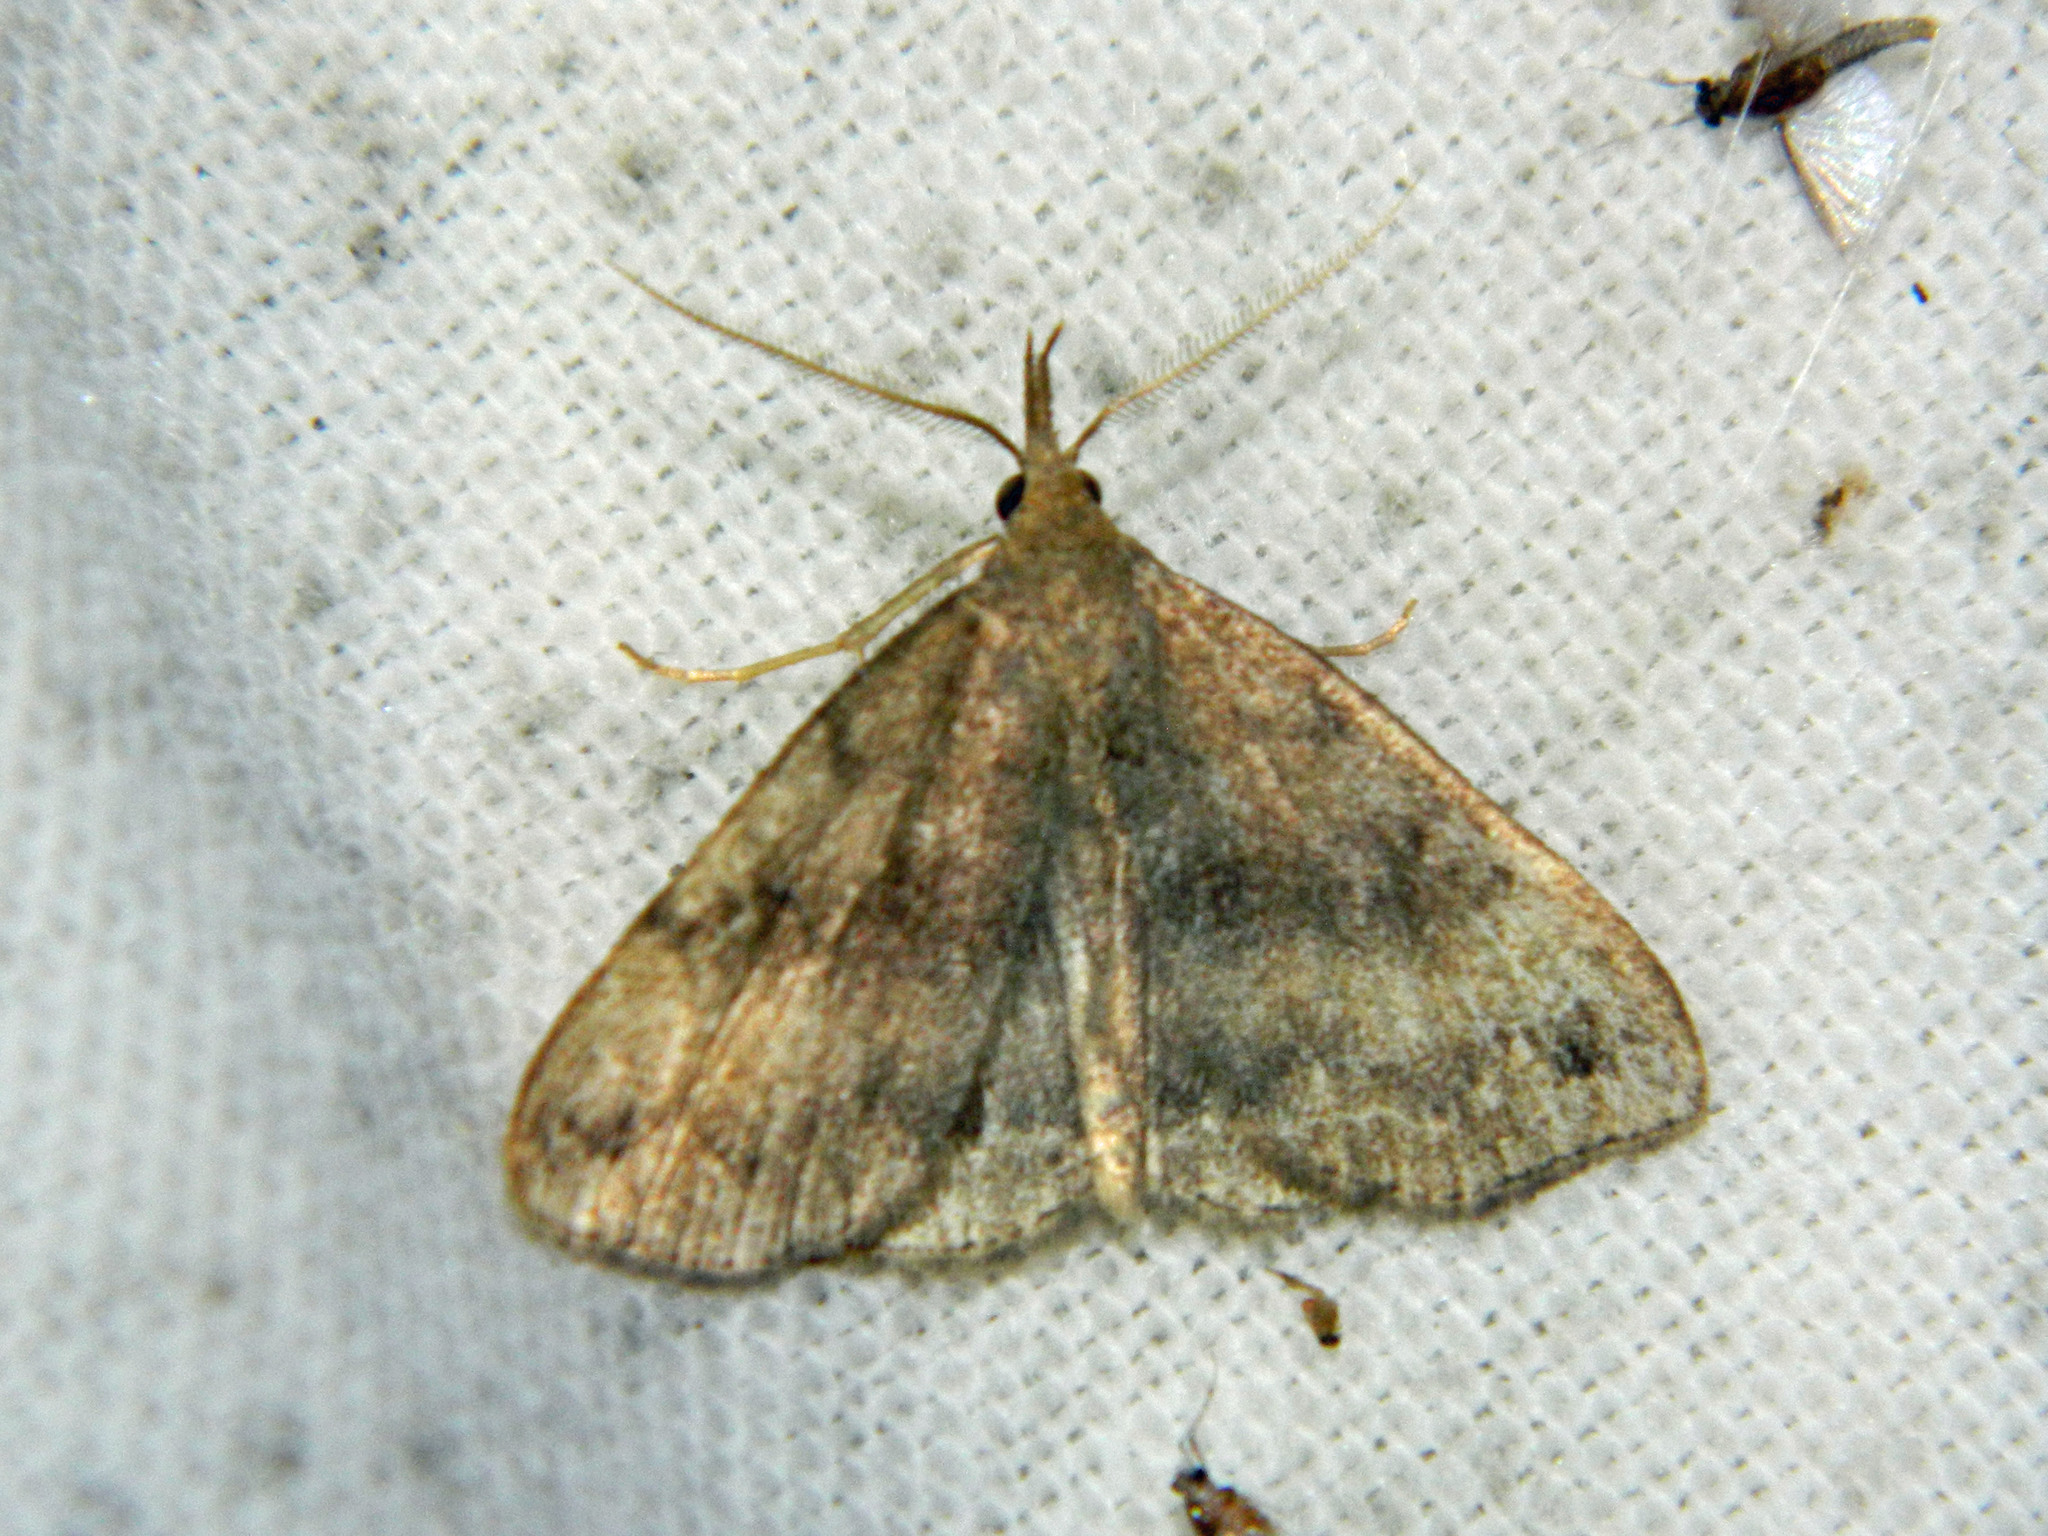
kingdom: Animalia
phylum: Arthropoda
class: Insecta
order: Lepidoptera
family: Erebidae
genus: Phalaenostola
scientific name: Phalaenostola eumelusalis
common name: Dark phalaenostola moth
